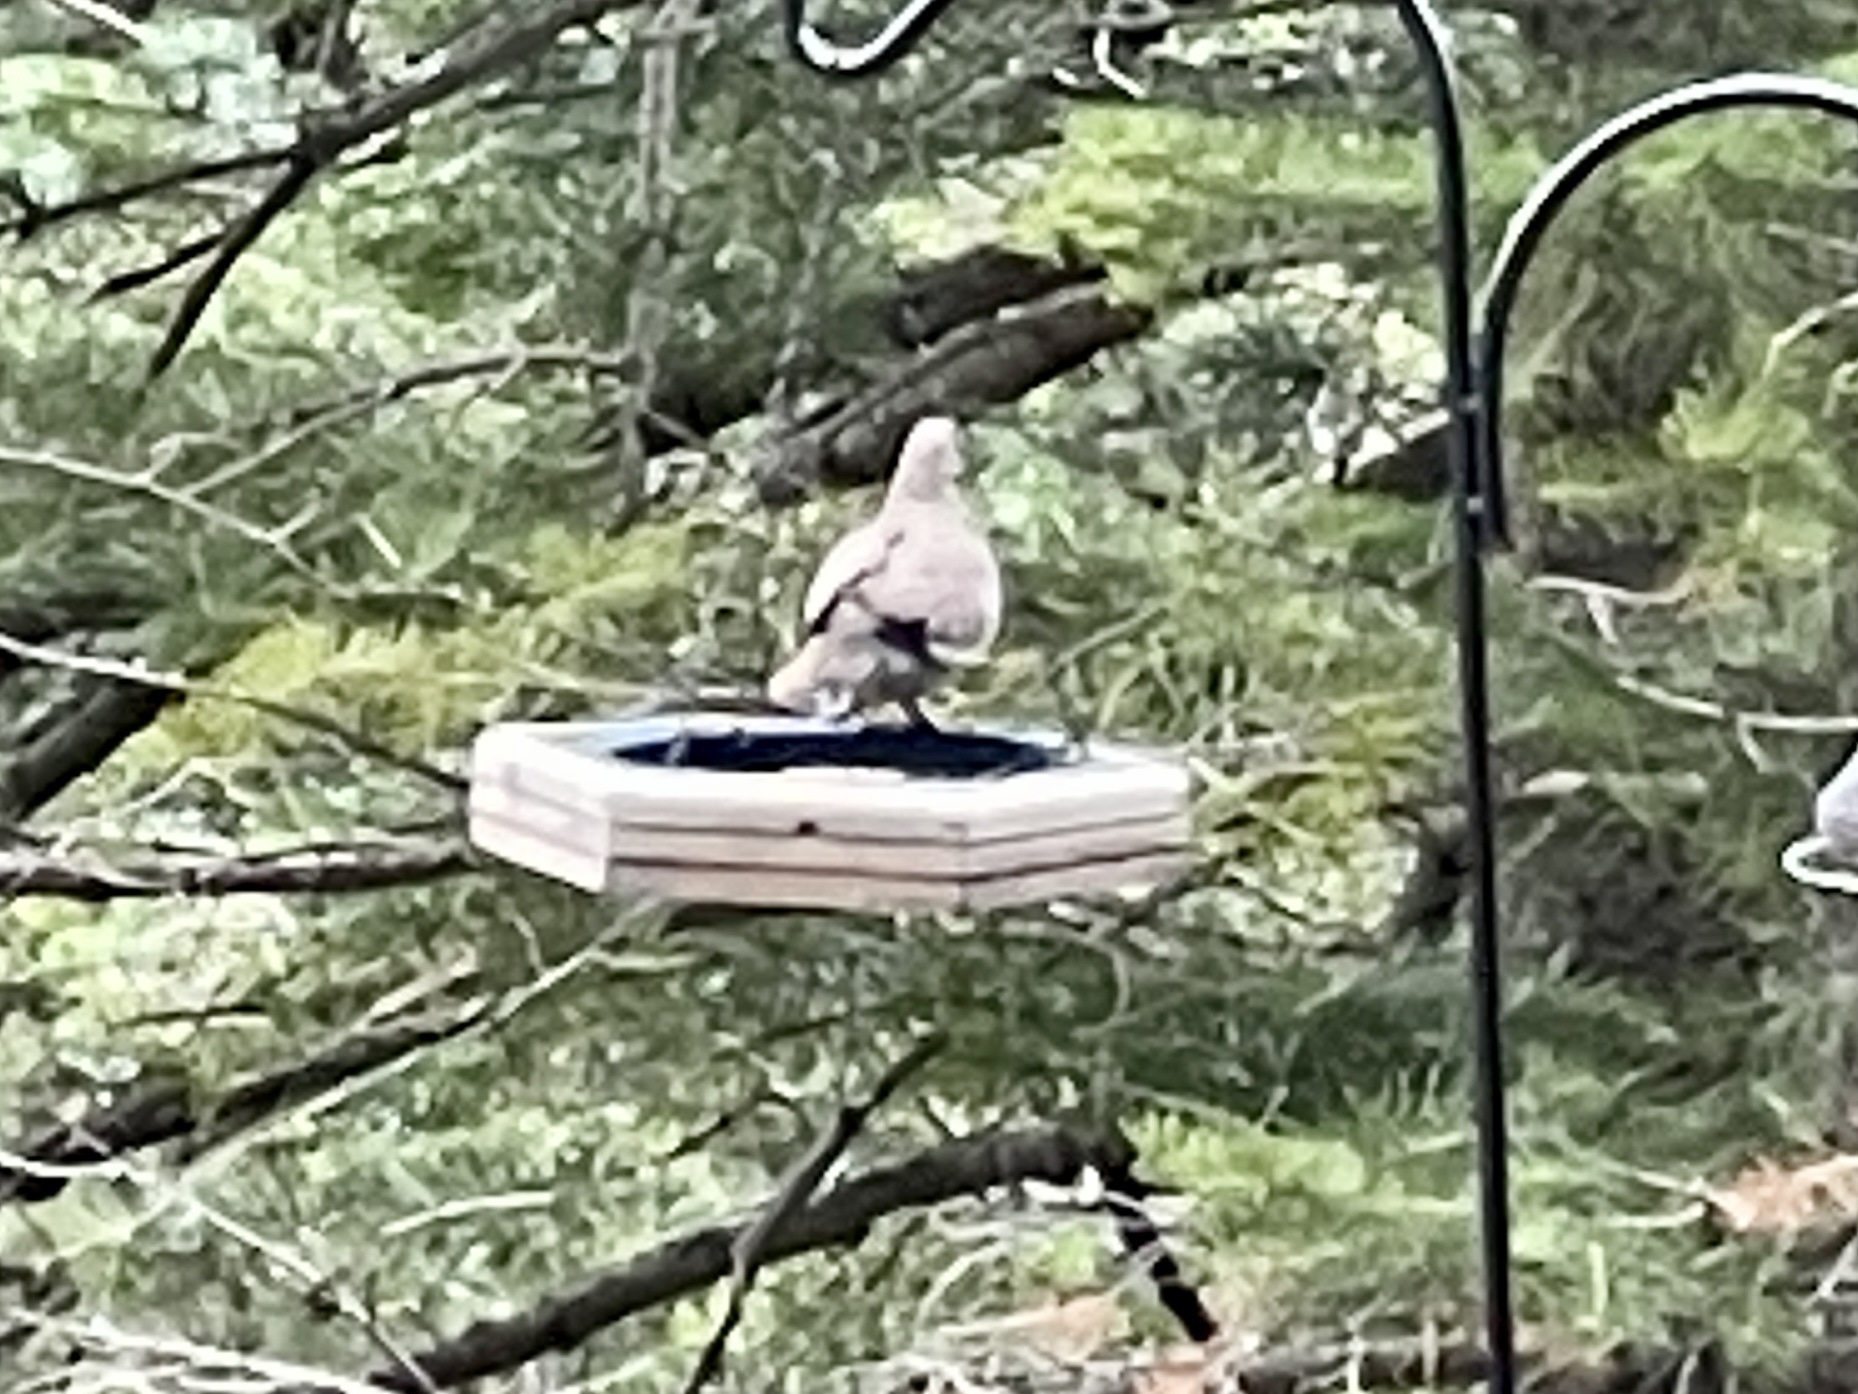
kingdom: Animalia
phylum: Chordata
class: Aves
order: Columbiformes
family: Columbidae
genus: Zenaida
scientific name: Zenaida asiatica
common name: White-winged dove
